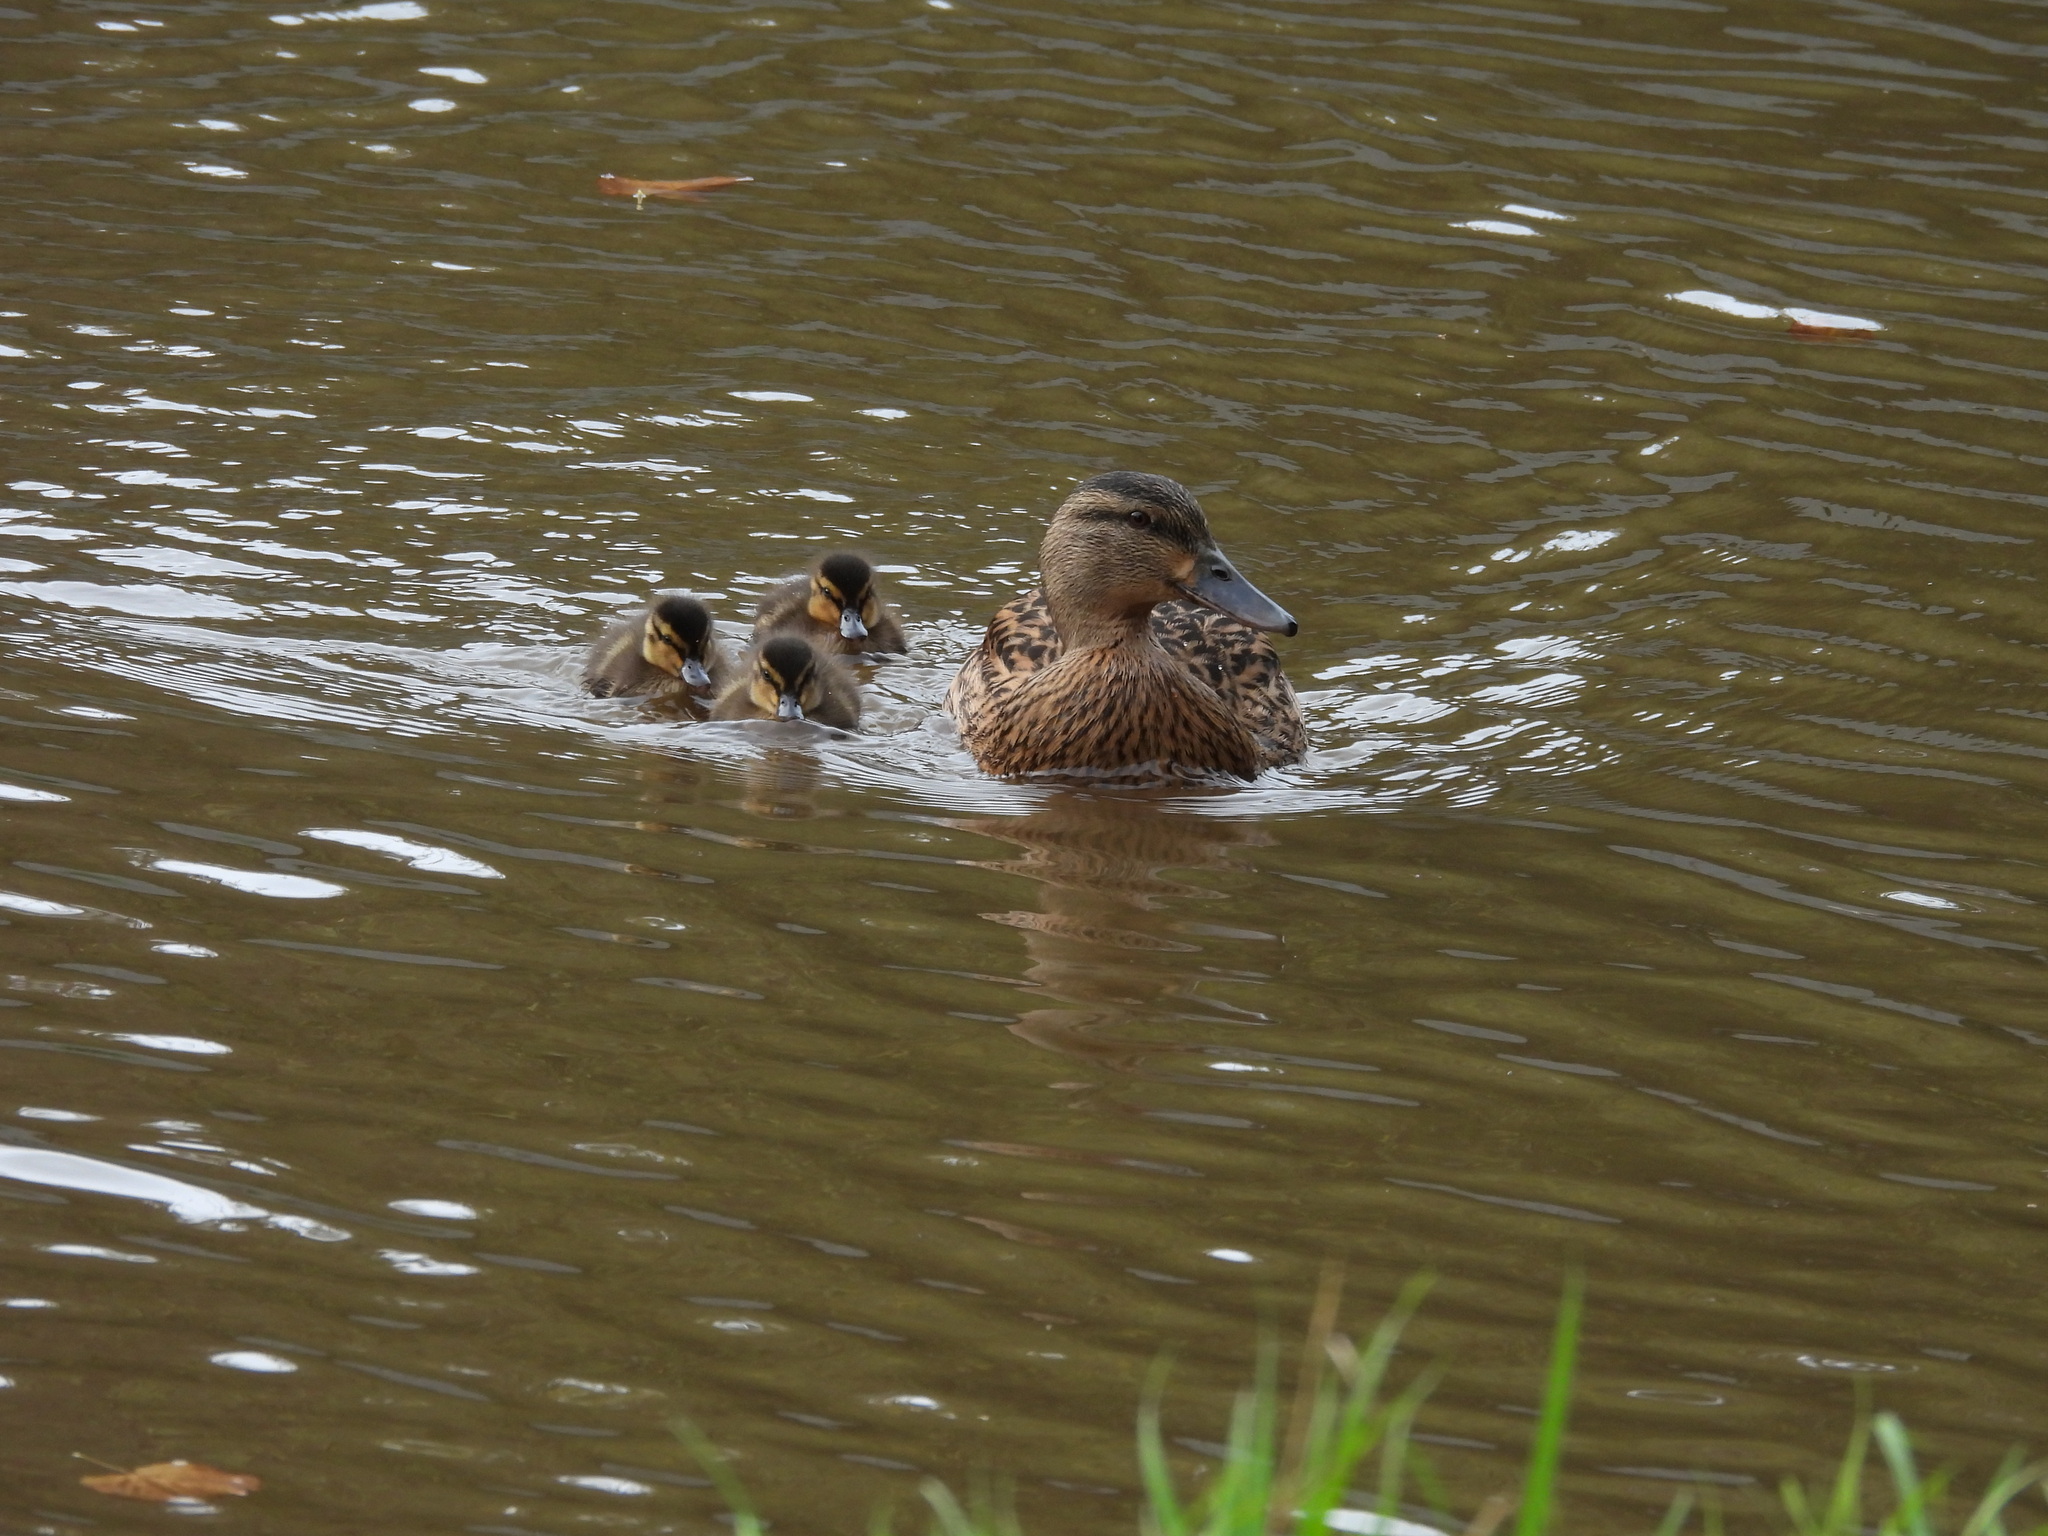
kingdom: Animalia
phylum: Chordata
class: Aves
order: Anseriformes
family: Anatidae
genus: Anas
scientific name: Anas platyrhynchos
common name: Mallard
